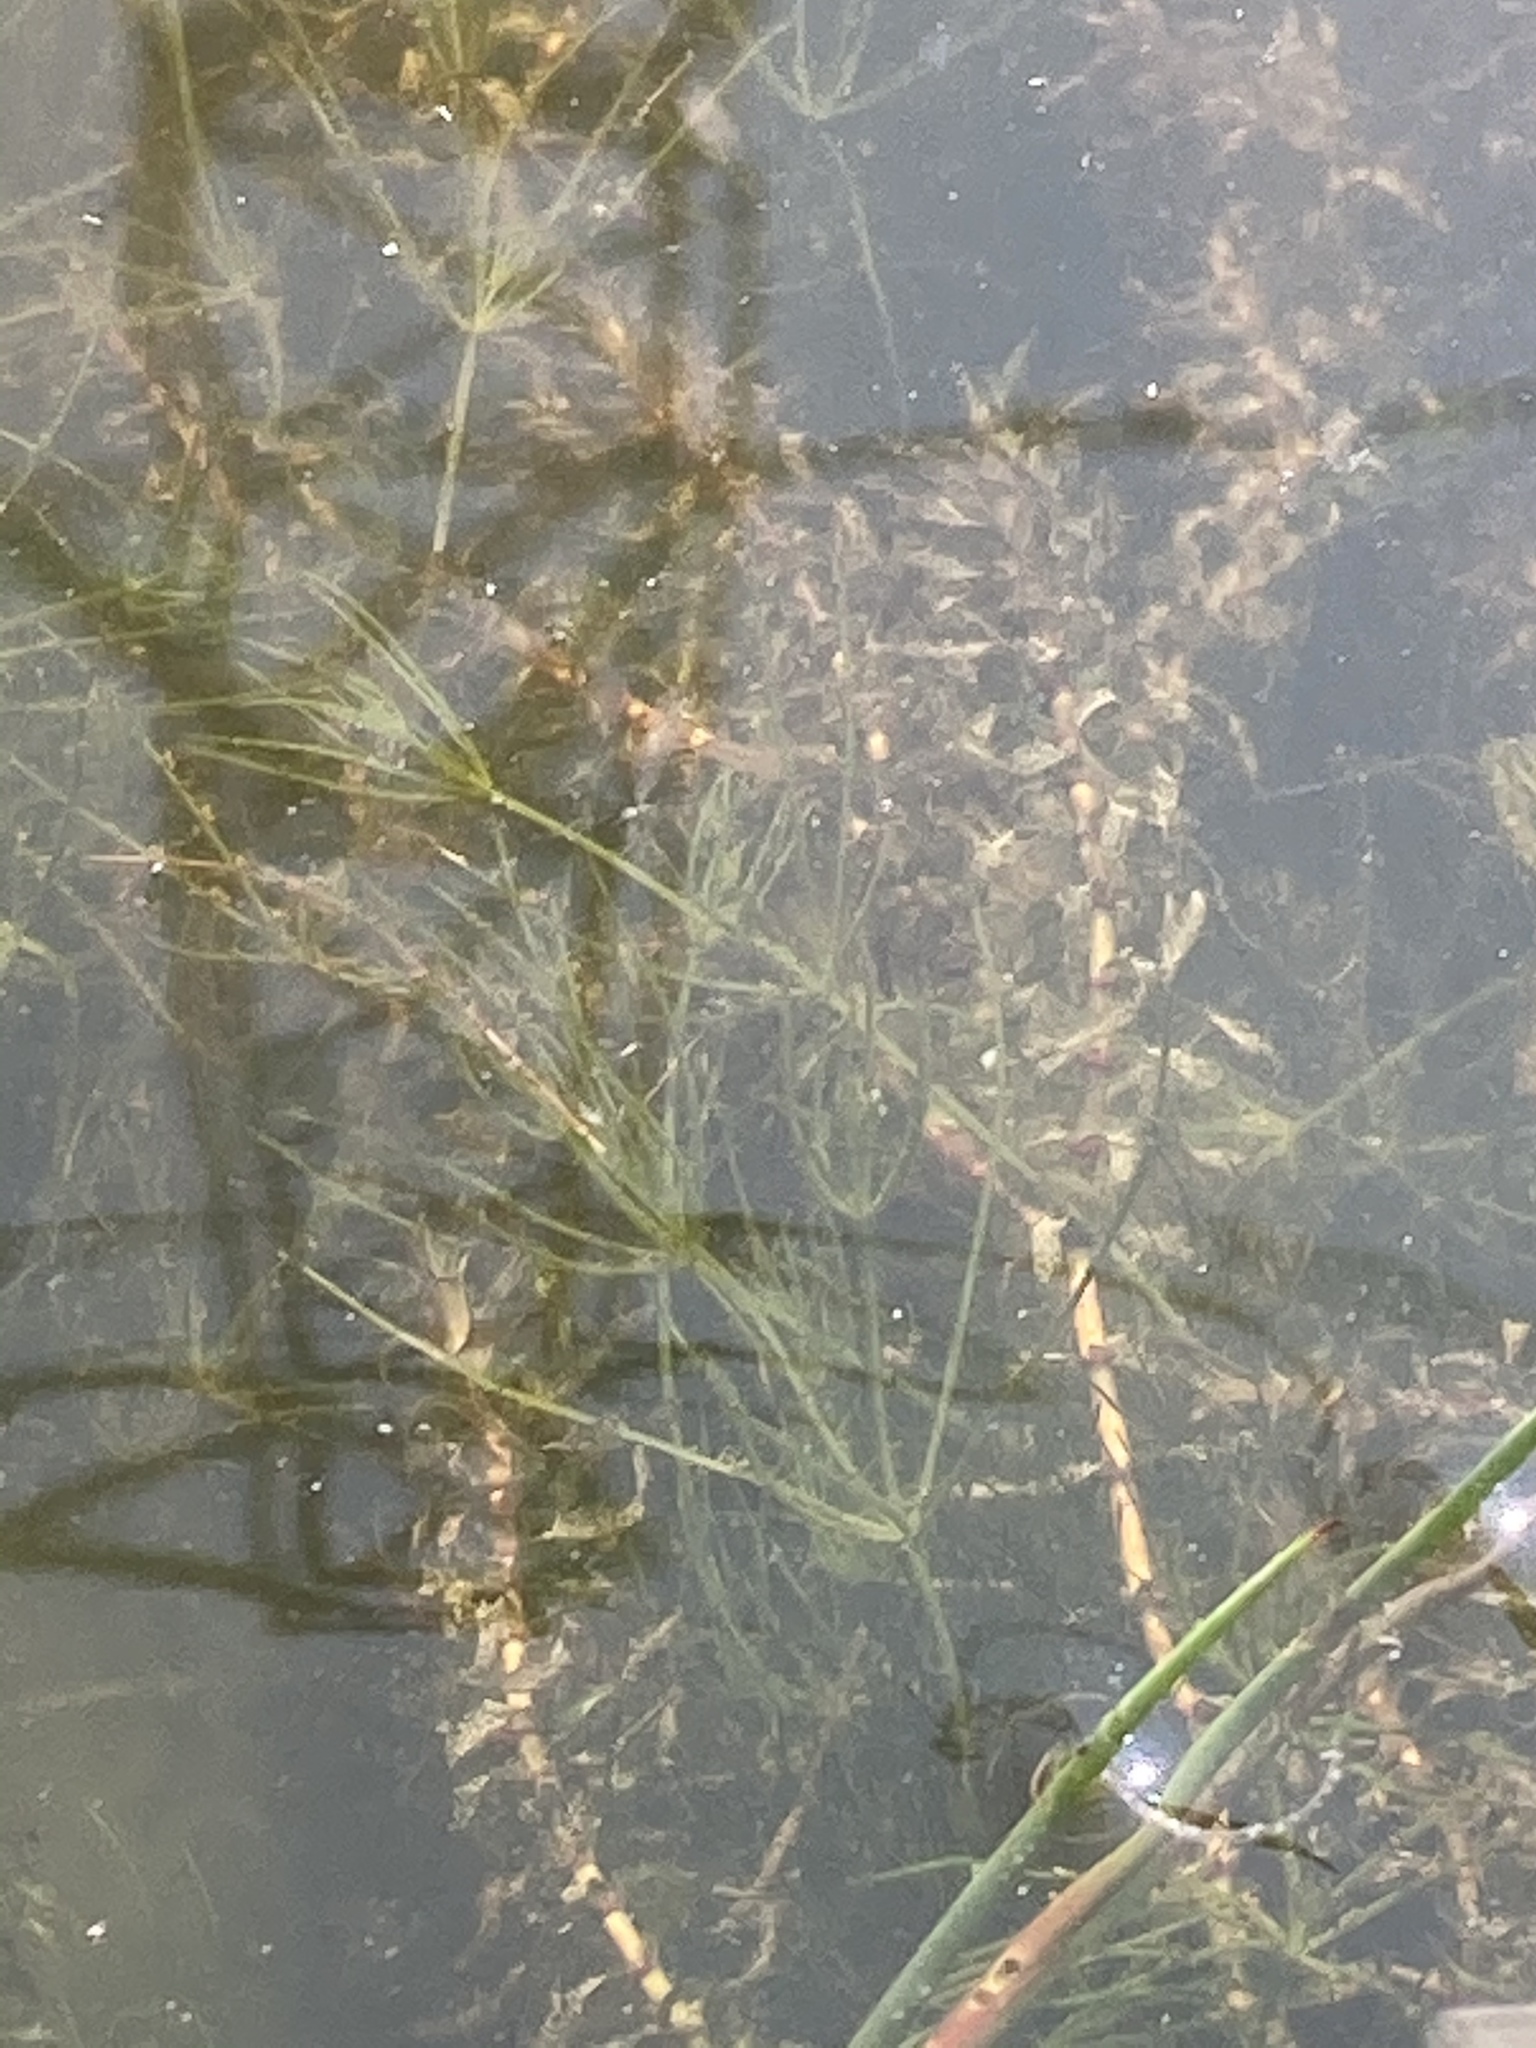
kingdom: Plantae
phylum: Charophyta
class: Charophyceae
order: Charales
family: Characeae
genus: Chara
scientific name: Chara globularis
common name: Fragile stonewort
